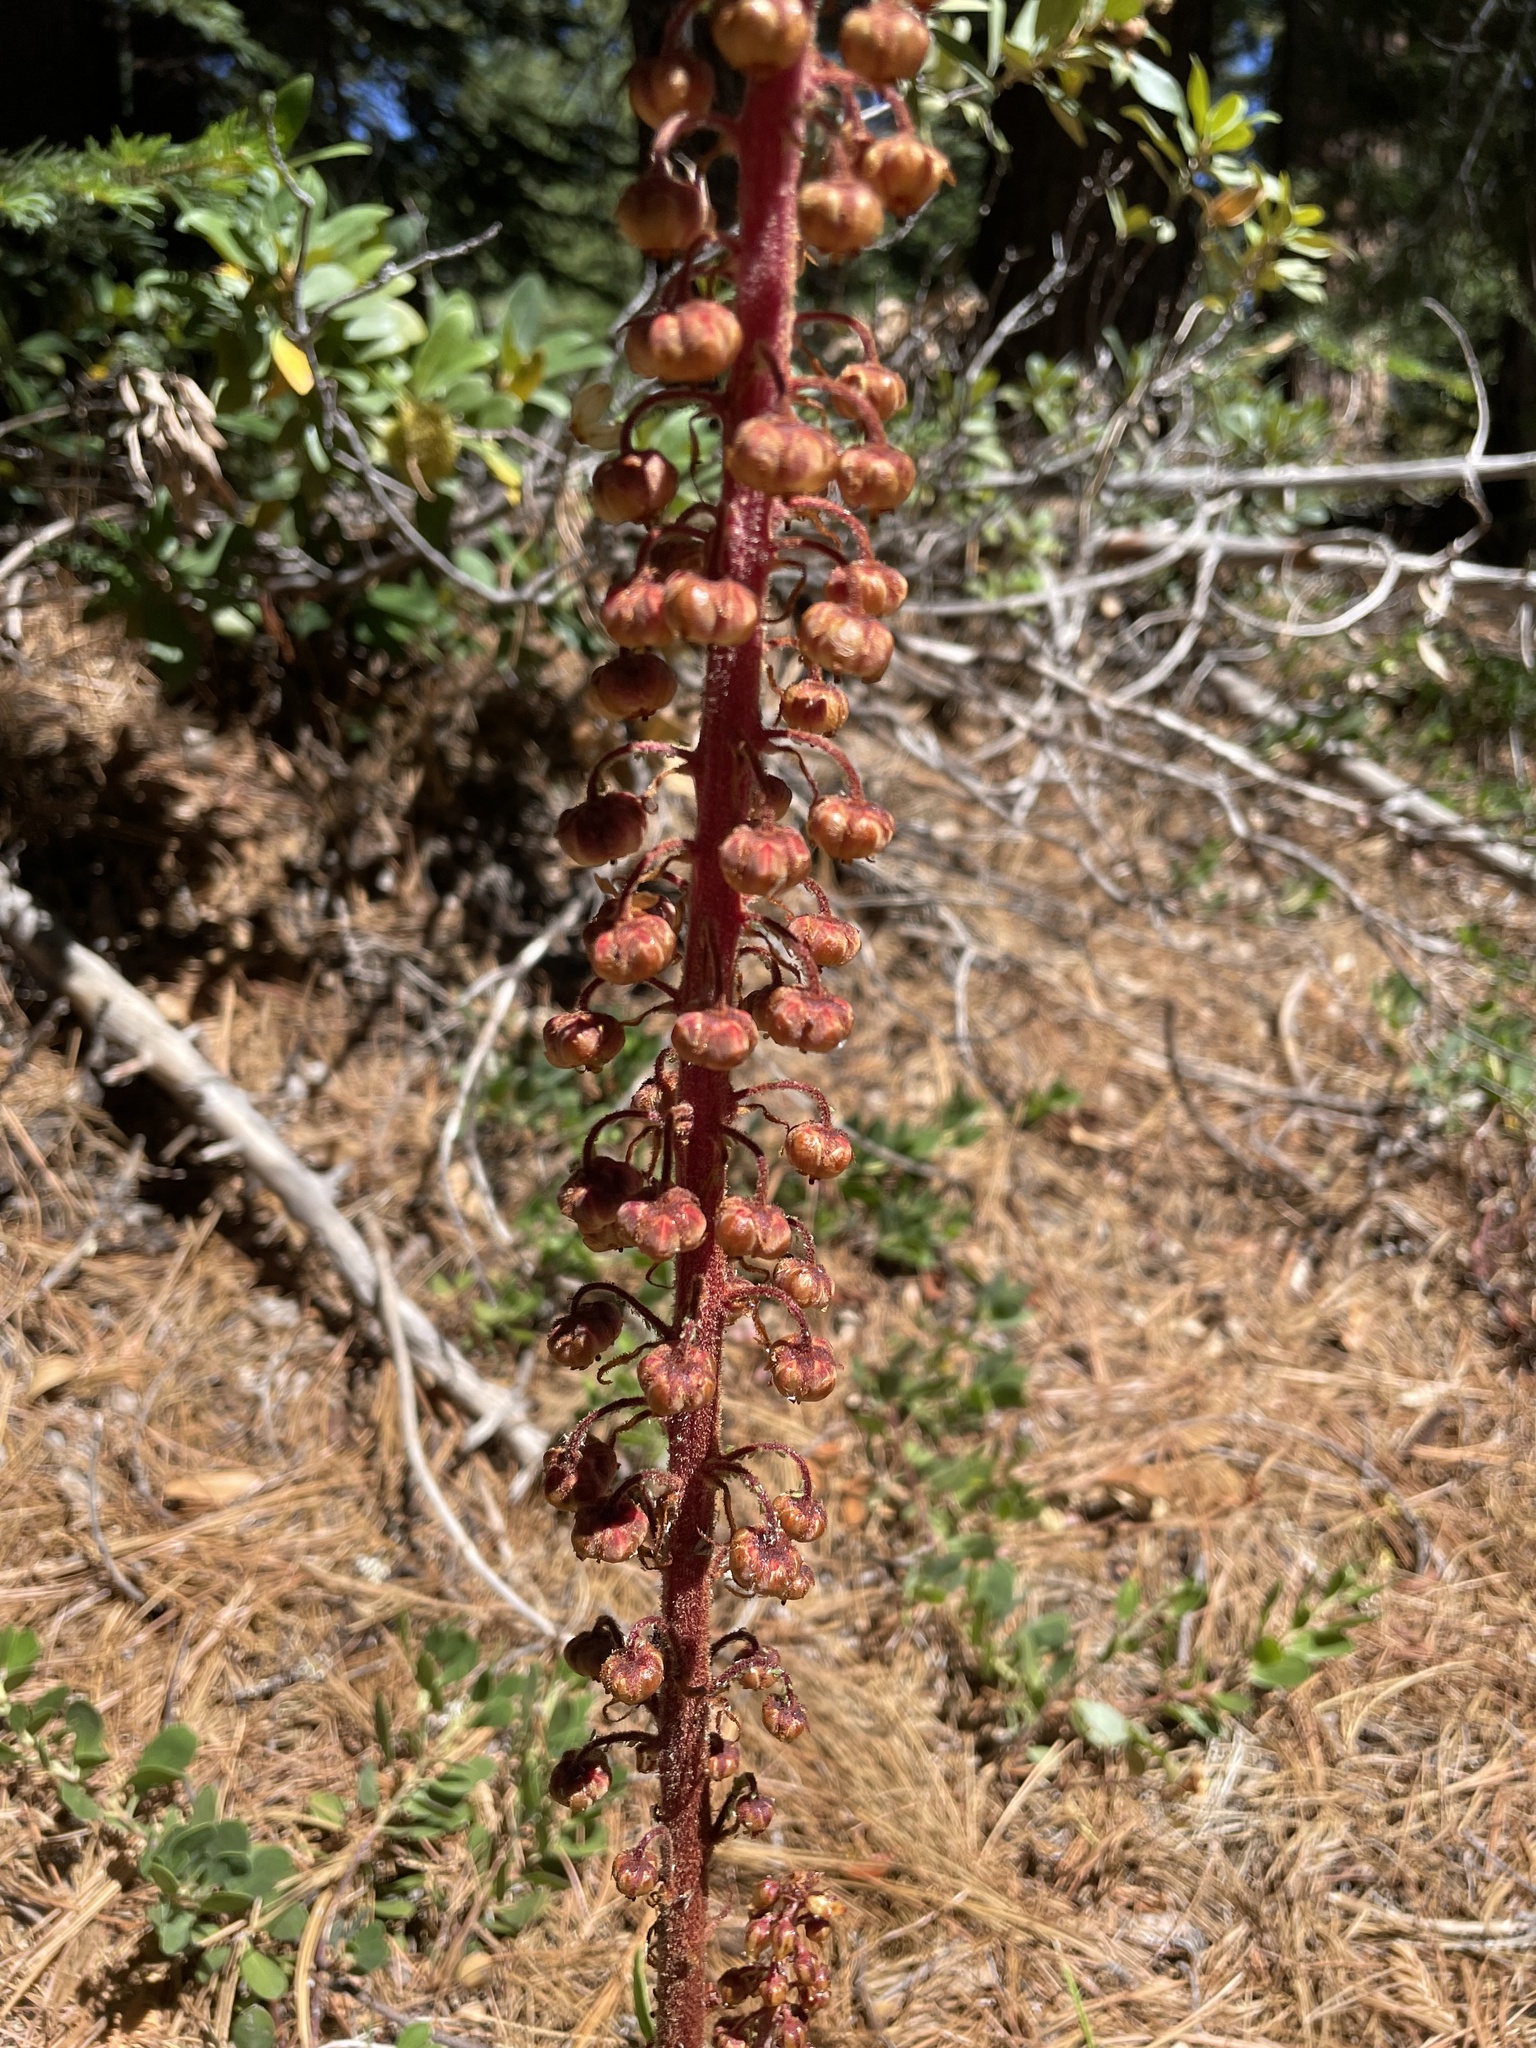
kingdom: Plantae
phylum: Tracheophyta
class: Magnoliopsida
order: Ericales
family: Ericaceae
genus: Pterospora
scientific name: Pterospora andromedea
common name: Giant bird's-nest
